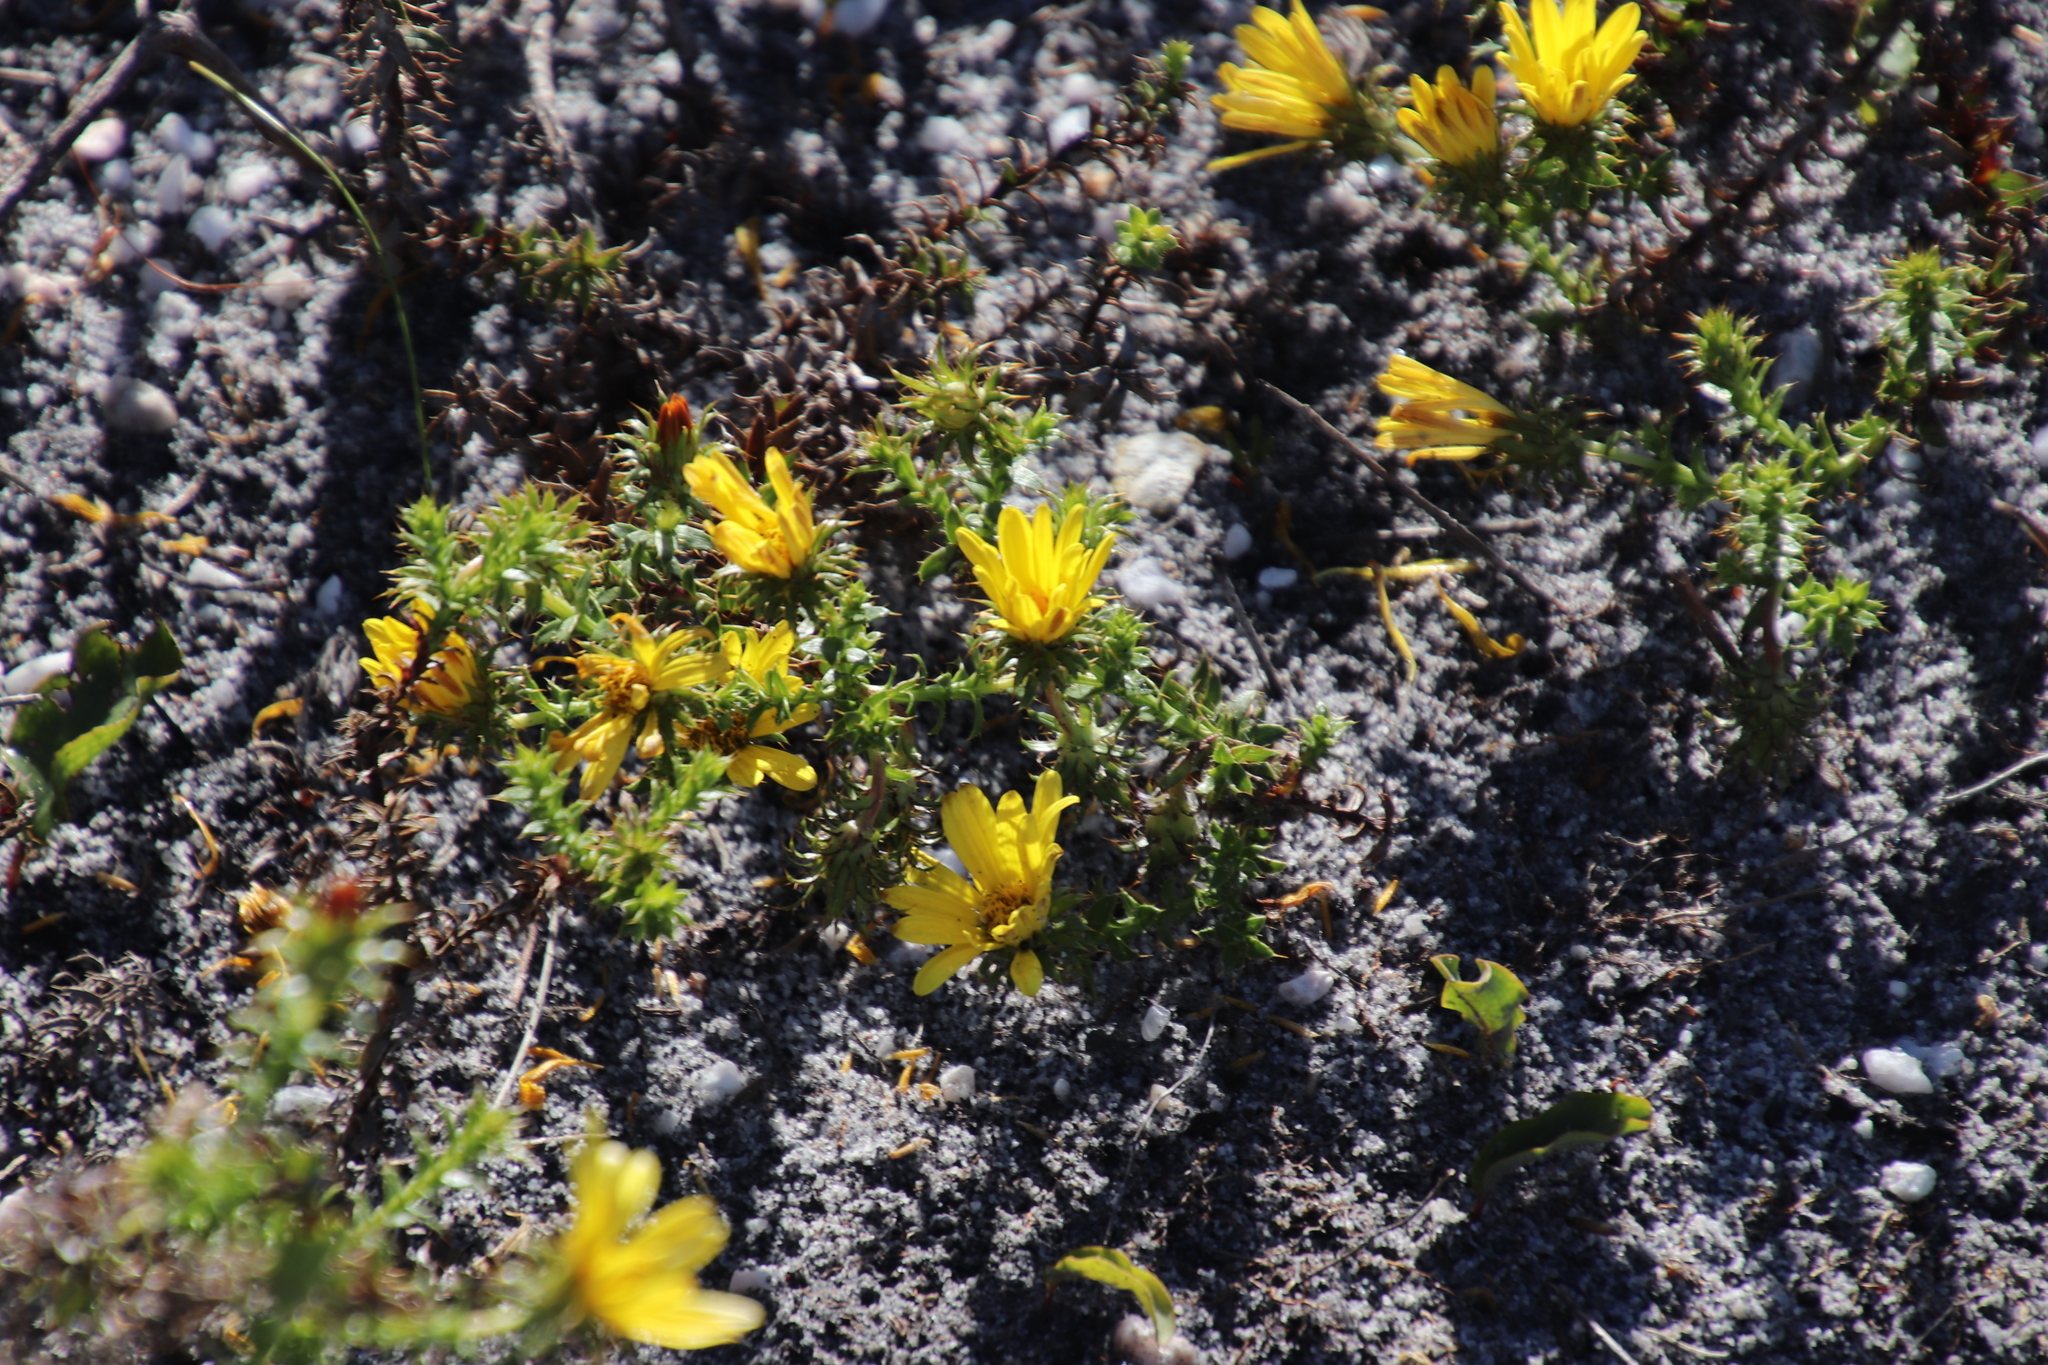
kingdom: Plantae
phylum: Tracheophyta
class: Magnoliopsida
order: Asterales
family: Asteraceae
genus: Cullumia
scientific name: Cullumia setosa
